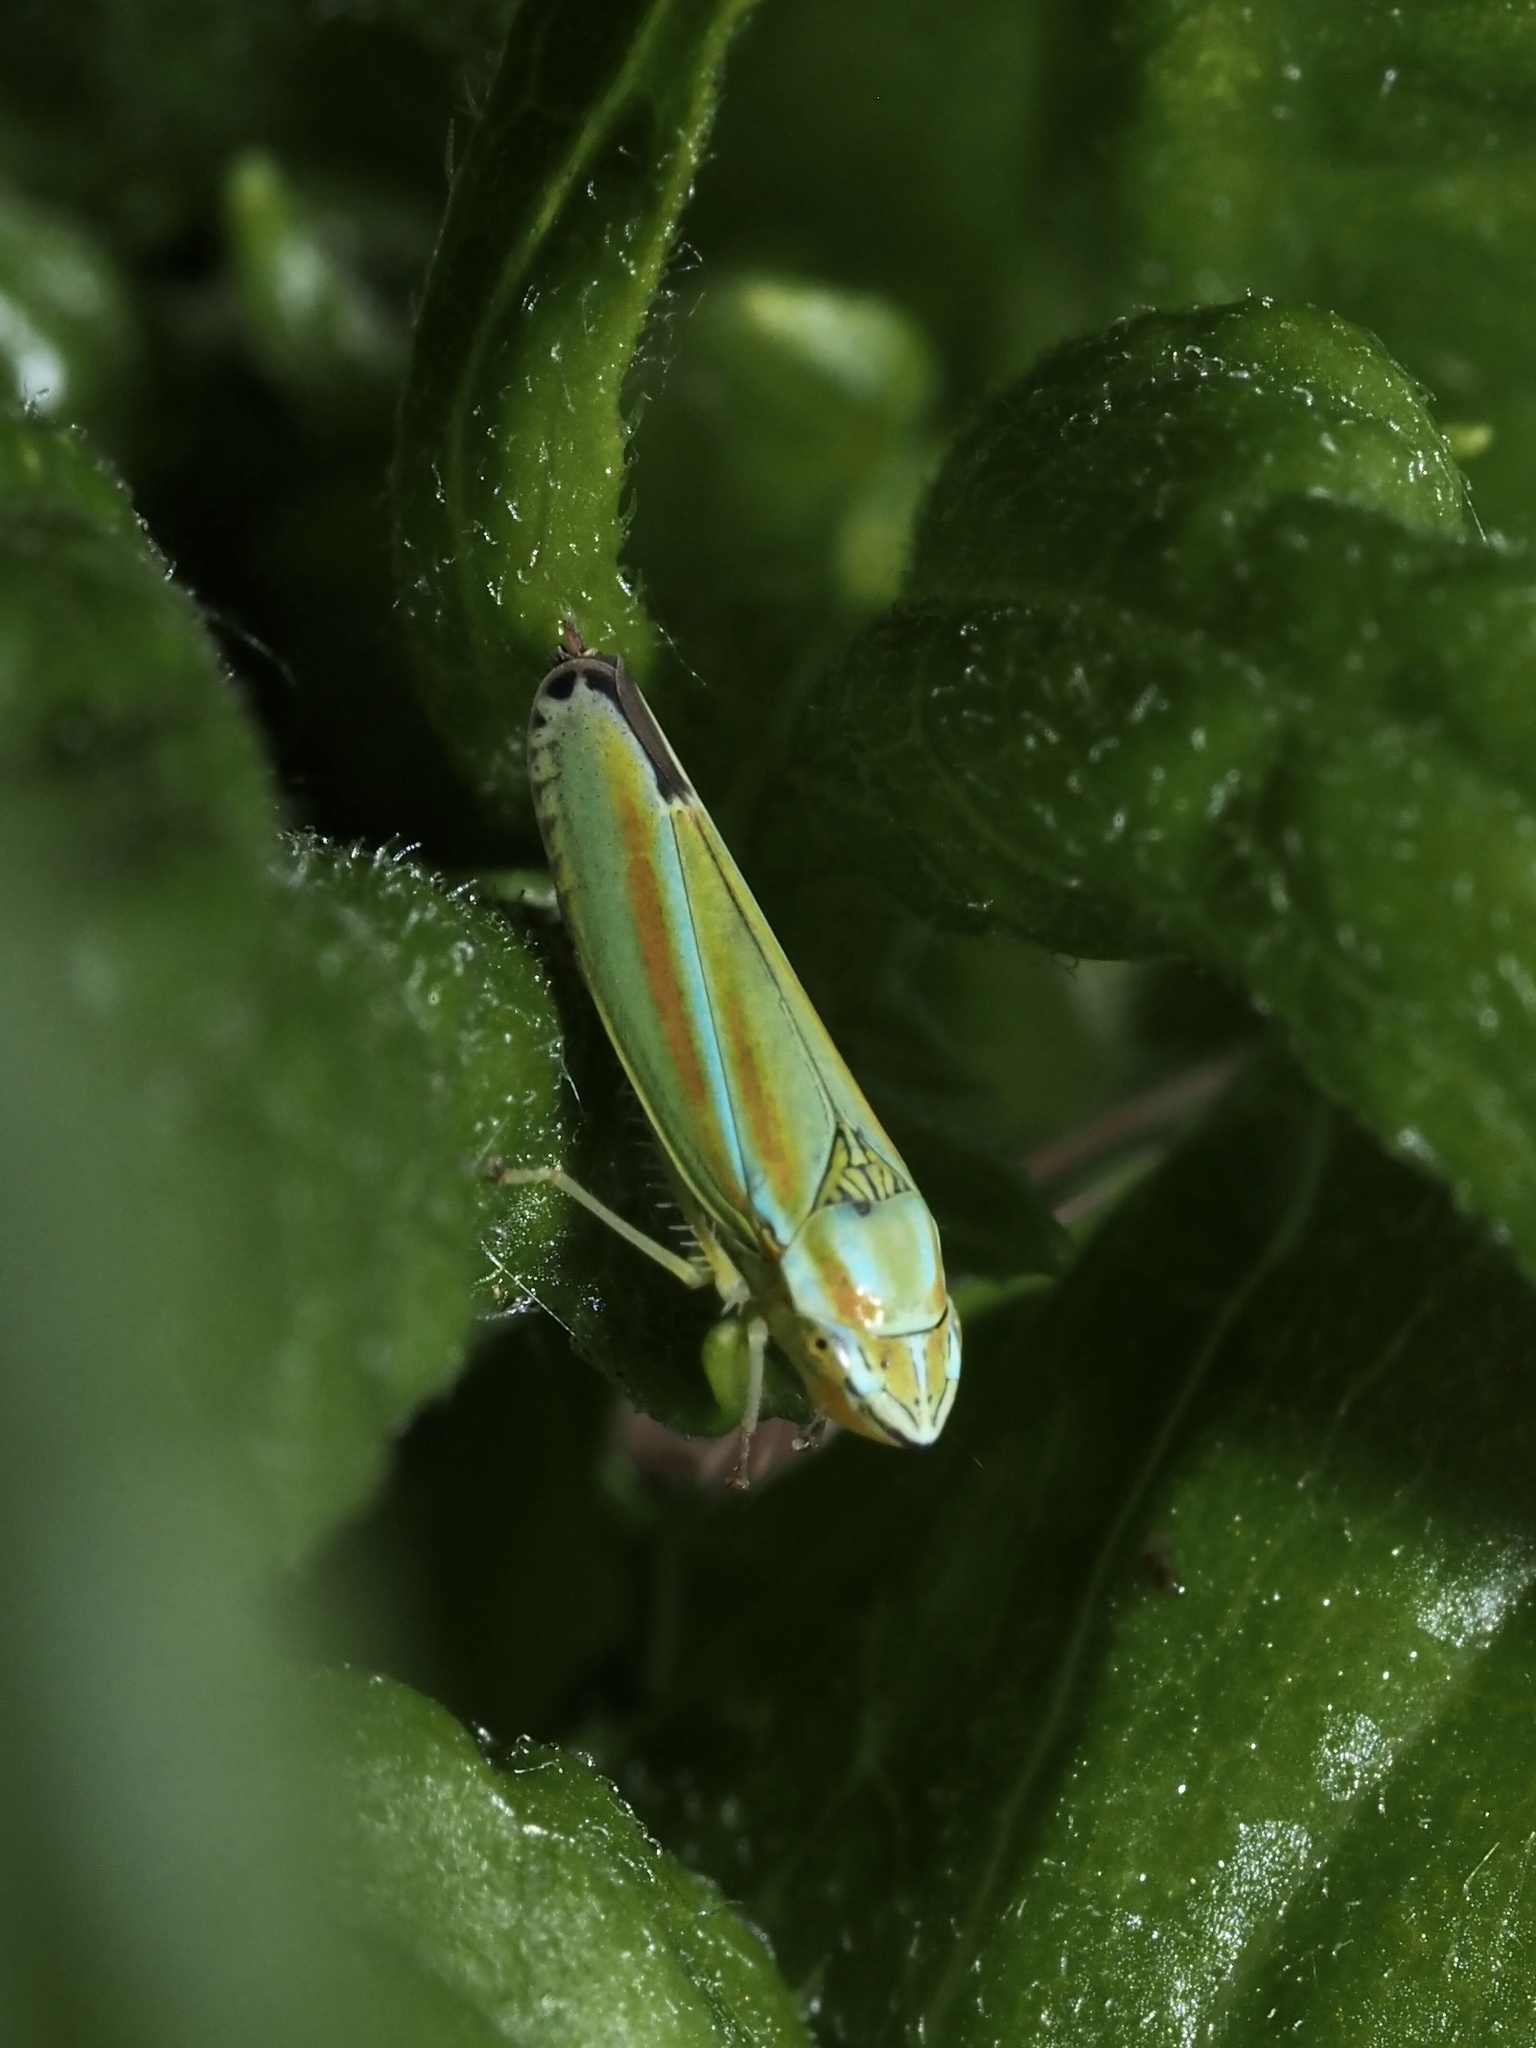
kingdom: Animalia
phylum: Arthropoda
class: Insecta
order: Hemiptera
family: Cicadellidae
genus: Graphocephala
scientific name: Graphocephala versuta
